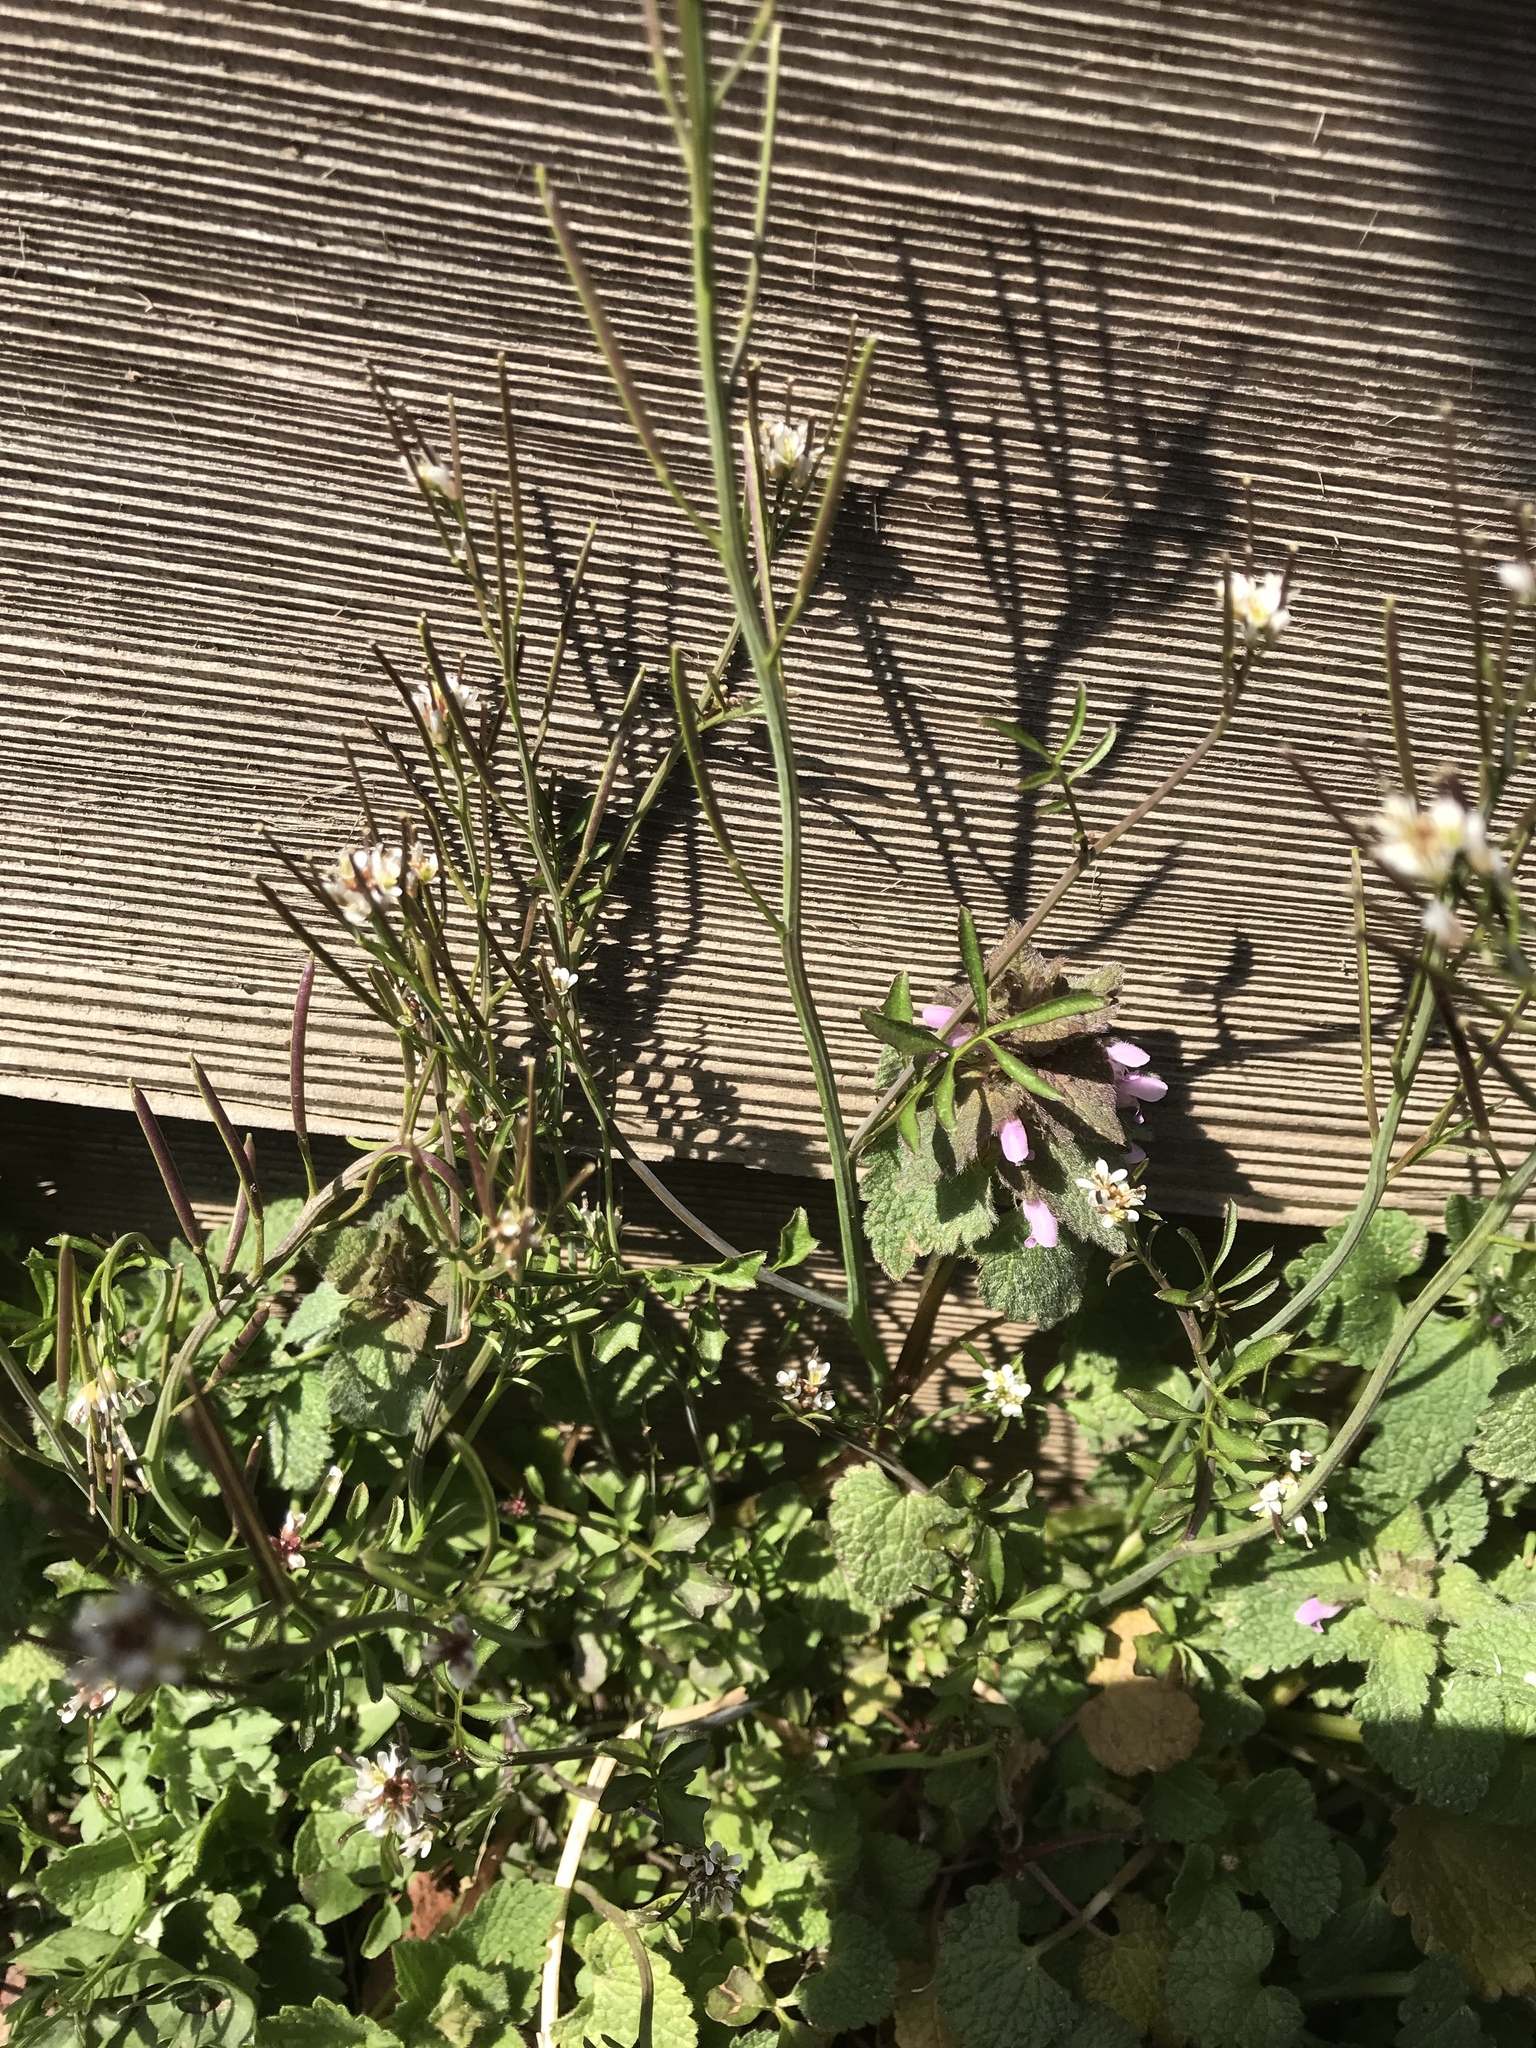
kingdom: Plantae
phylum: Tracheophyta
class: Magnoliopsida
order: Brassicales
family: Brassicaceae
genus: Cardamine
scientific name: Cardamine hirsuta
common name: Hairy bittercress
